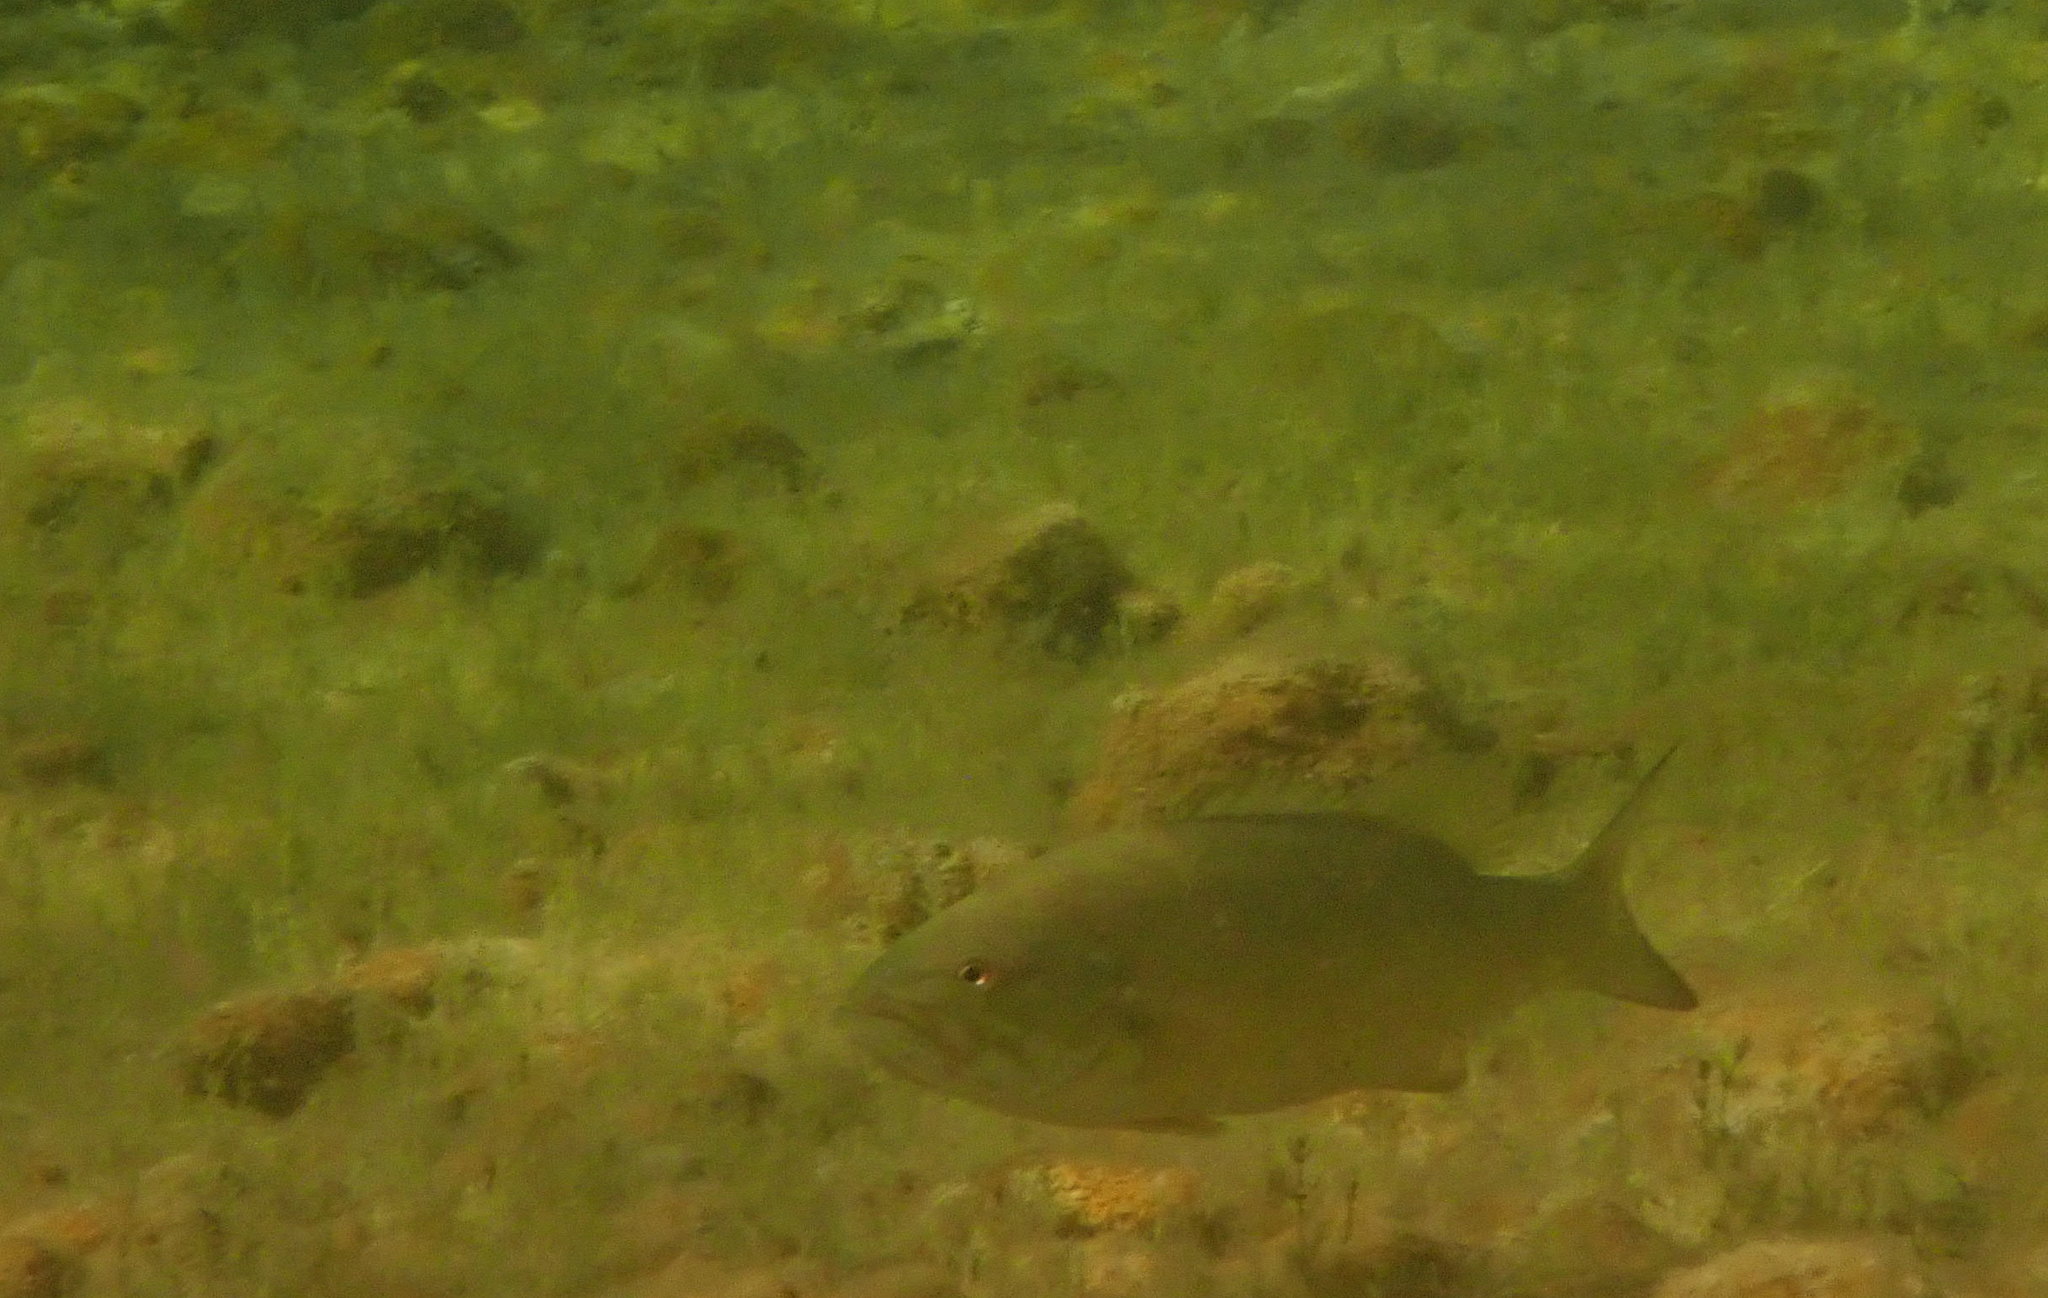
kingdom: Animalia
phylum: Chordata
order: Perciformes
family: Centrarchidae
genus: Micropterus
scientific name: Micropterus dolomieu
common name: Smallmouth bass
